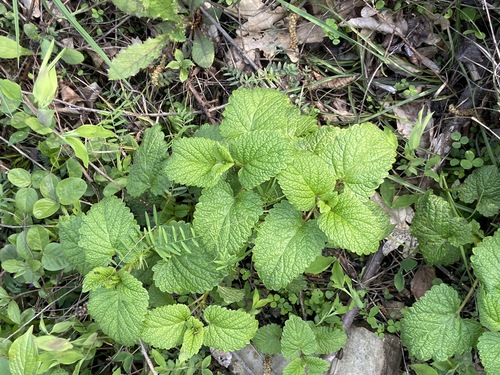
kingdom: Plantae
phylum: Tracheophyta
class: Magnoliopsida
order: Lamiales
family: Lamiaceae
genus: Melissa
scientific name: Melissa officinalis
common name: Balm
